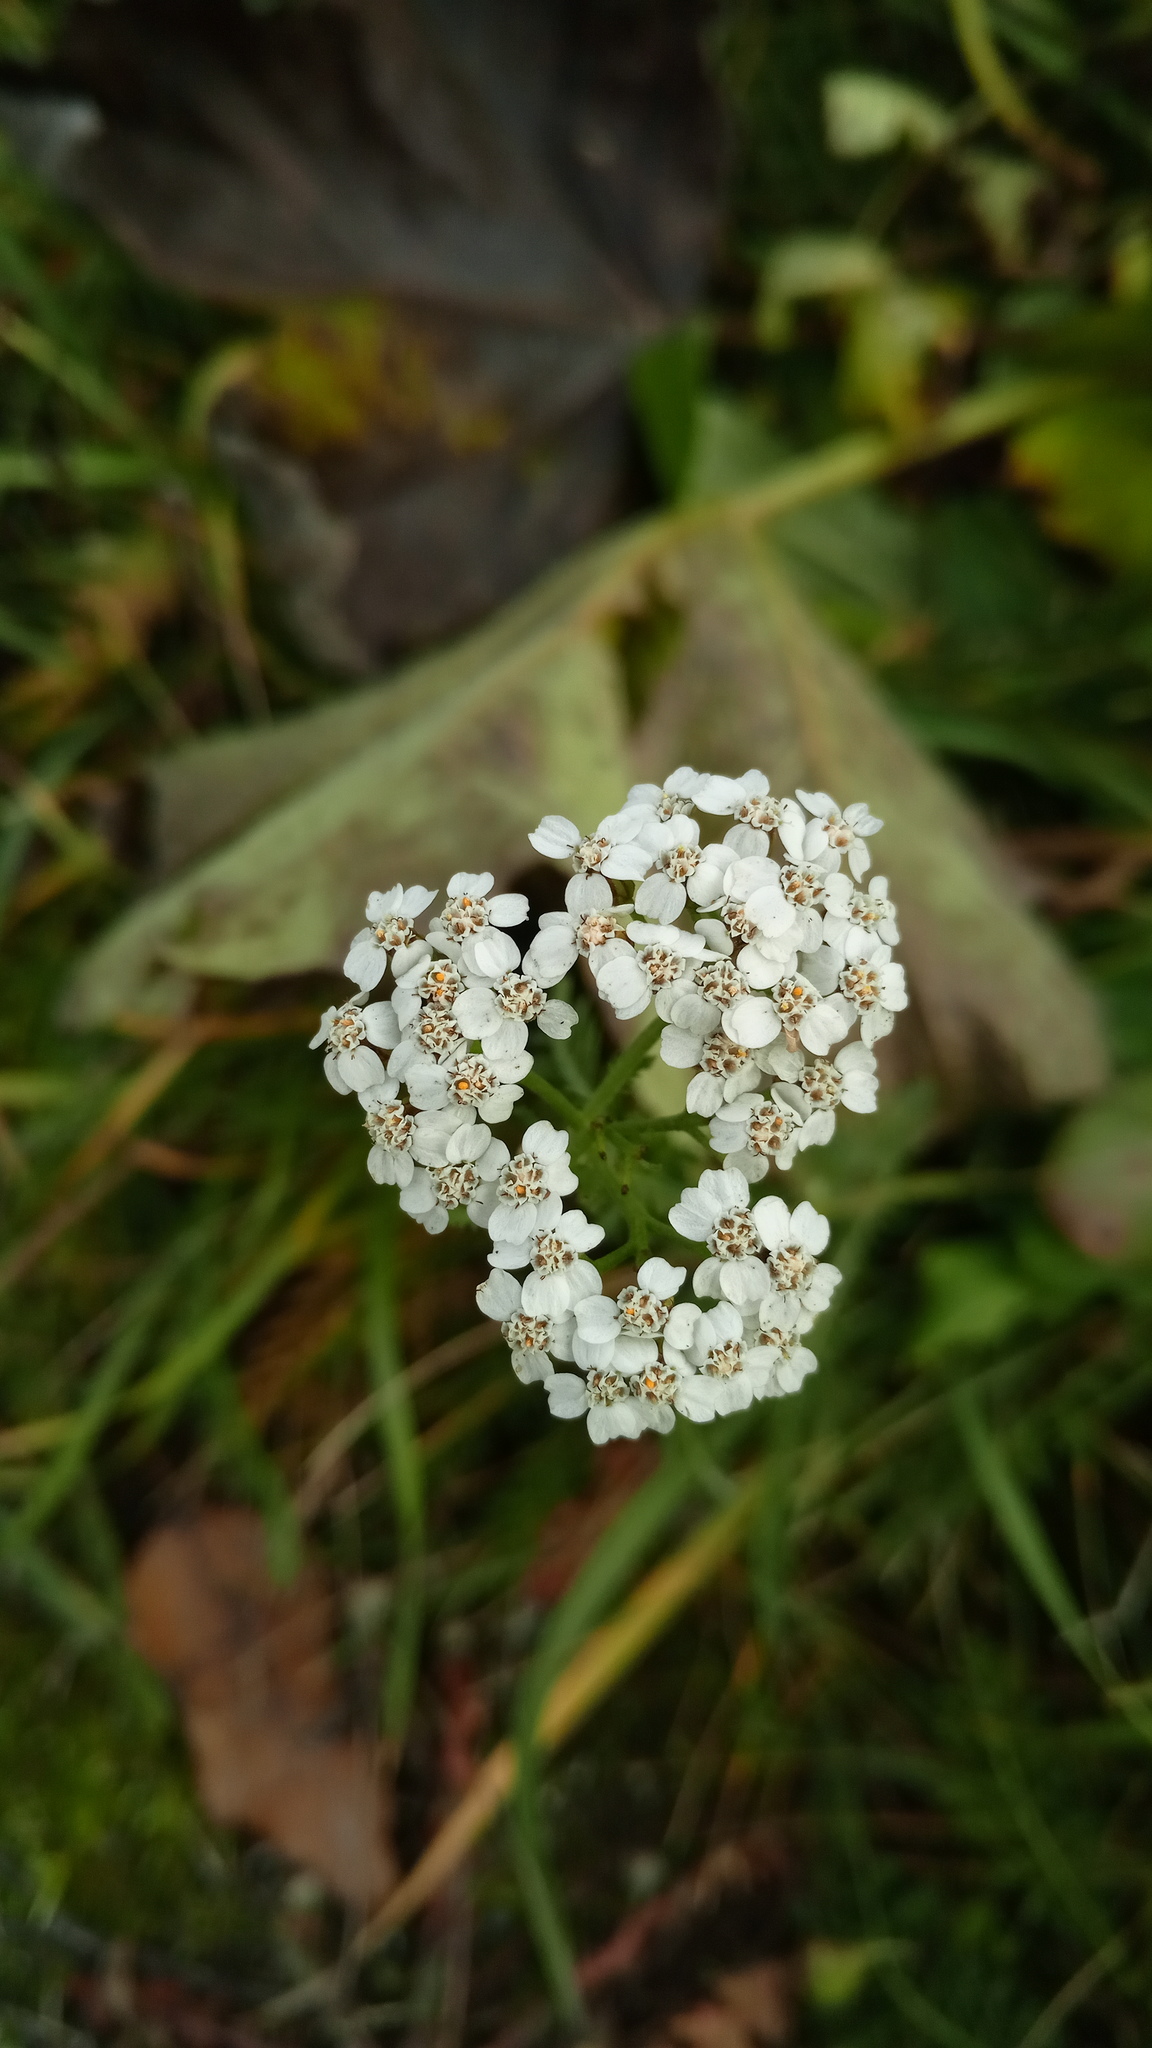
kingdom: Plantae
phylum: Tracheophyta
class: Magnoliopsida
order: Asterales
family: Asteraceae
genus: Achillea
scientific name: Achillea millefolium
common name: Yarrow
